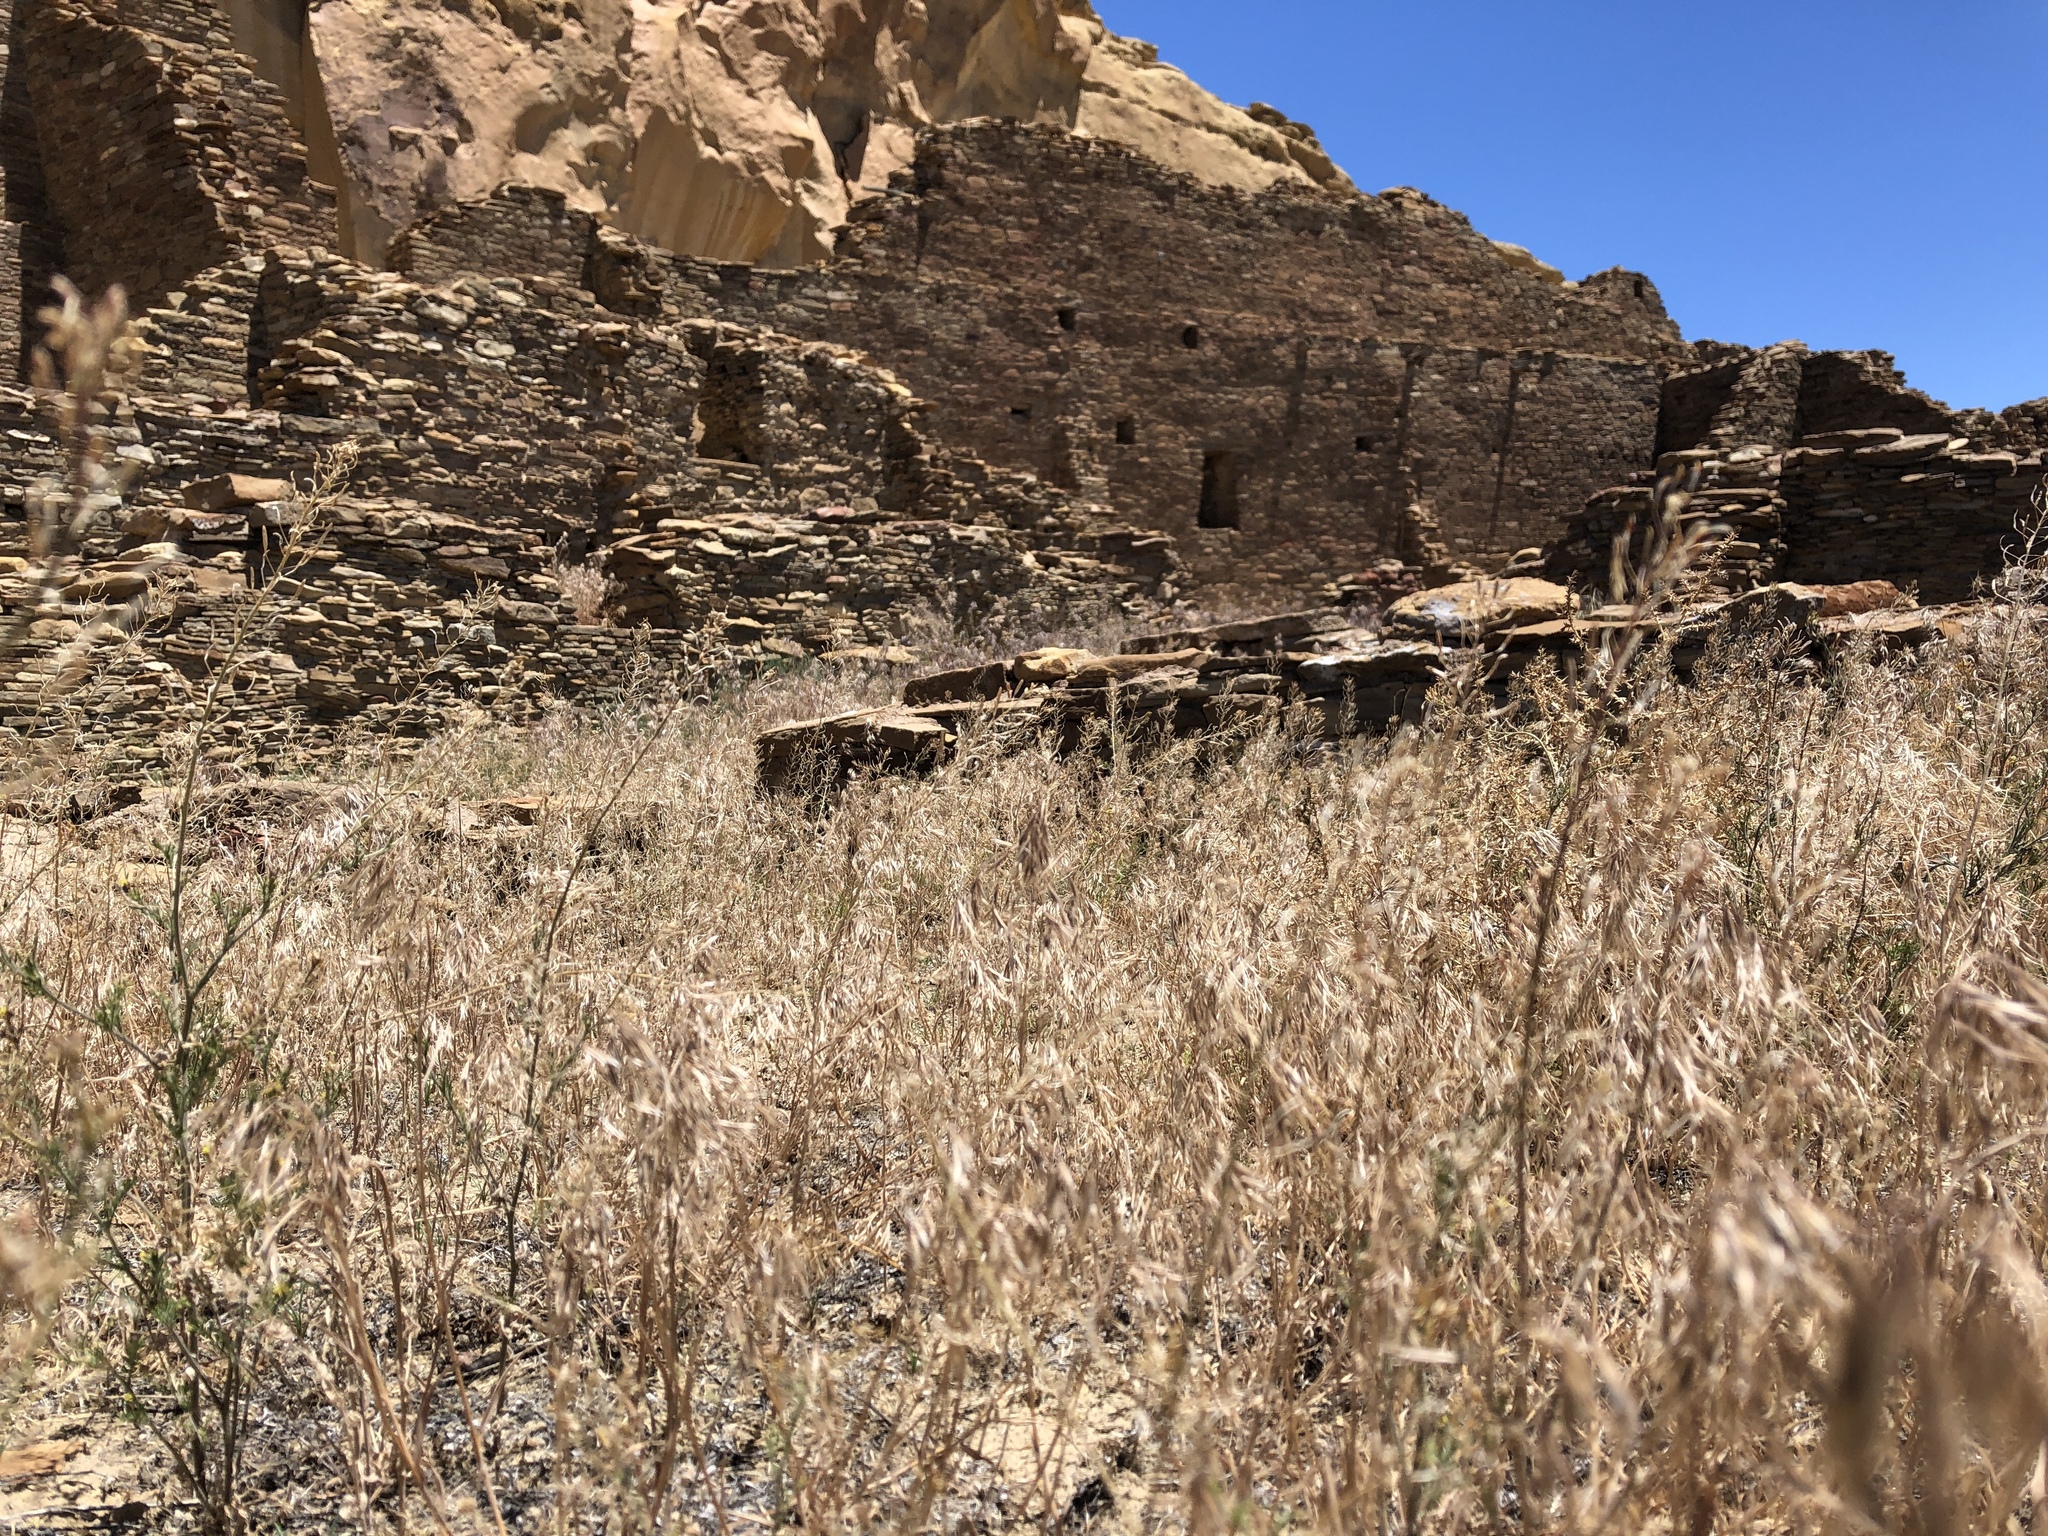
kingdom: Plantae
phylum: Tracheophyta
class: Liliopsida
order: Poales
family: Poaceae
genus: Bromus
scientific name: Bromus tectorum
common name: Cheatgrass
